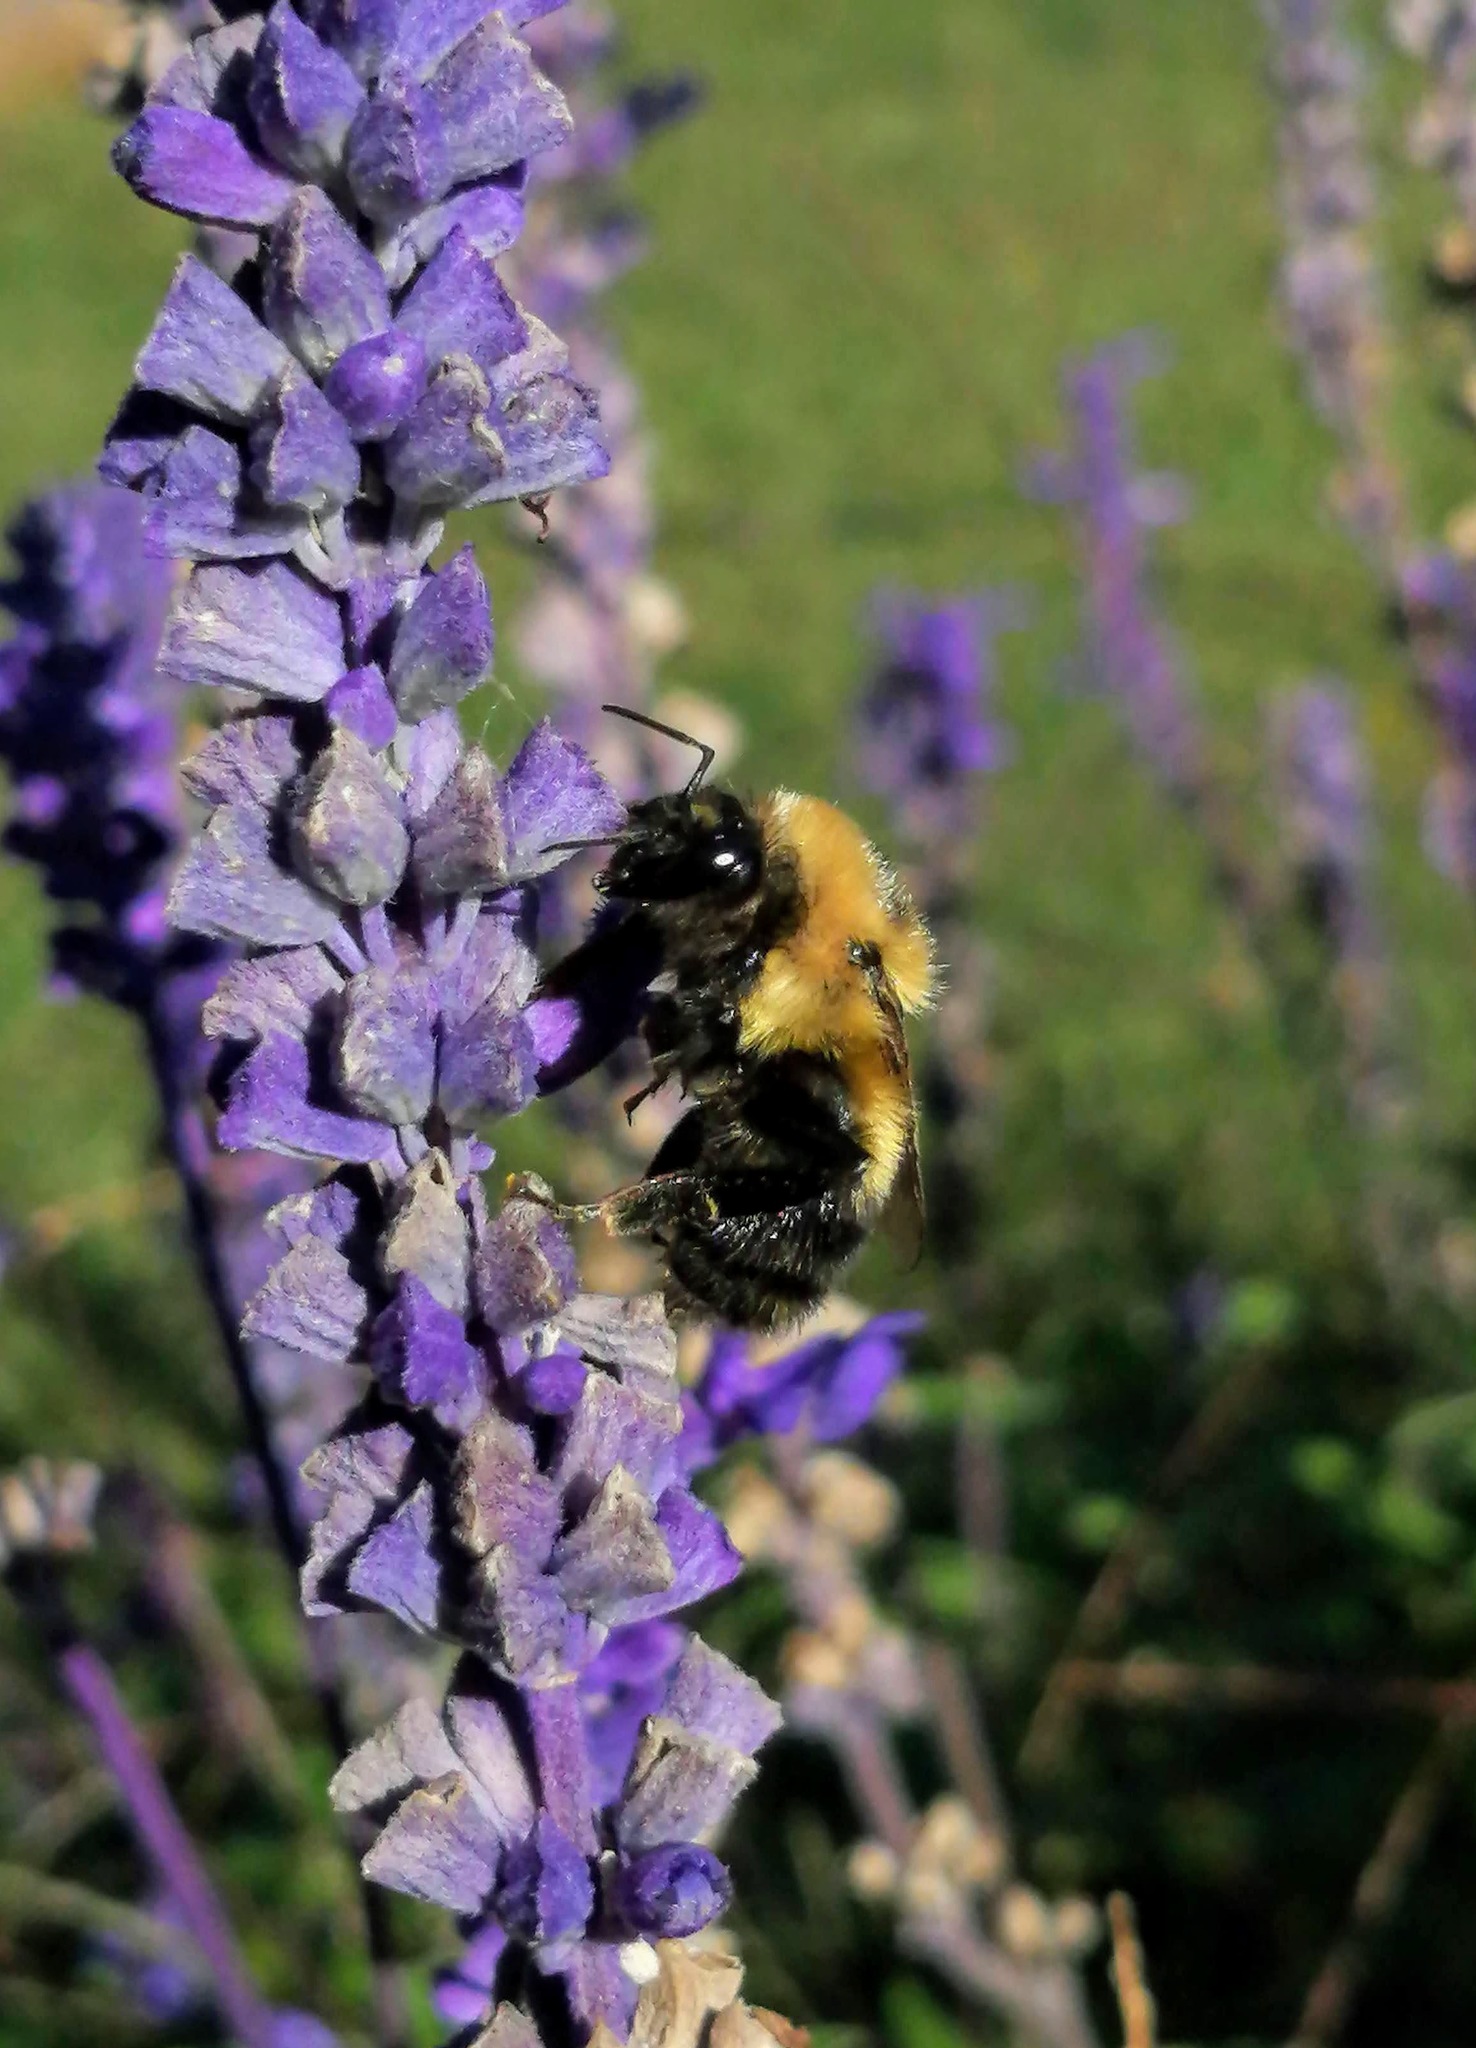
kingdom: Animalia
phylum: Arthropoda
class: Insecta
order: Hymenoptera
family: Apidae
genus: Bombus
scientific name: Bombus rufocinctus
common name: Red-belted bumble bee
